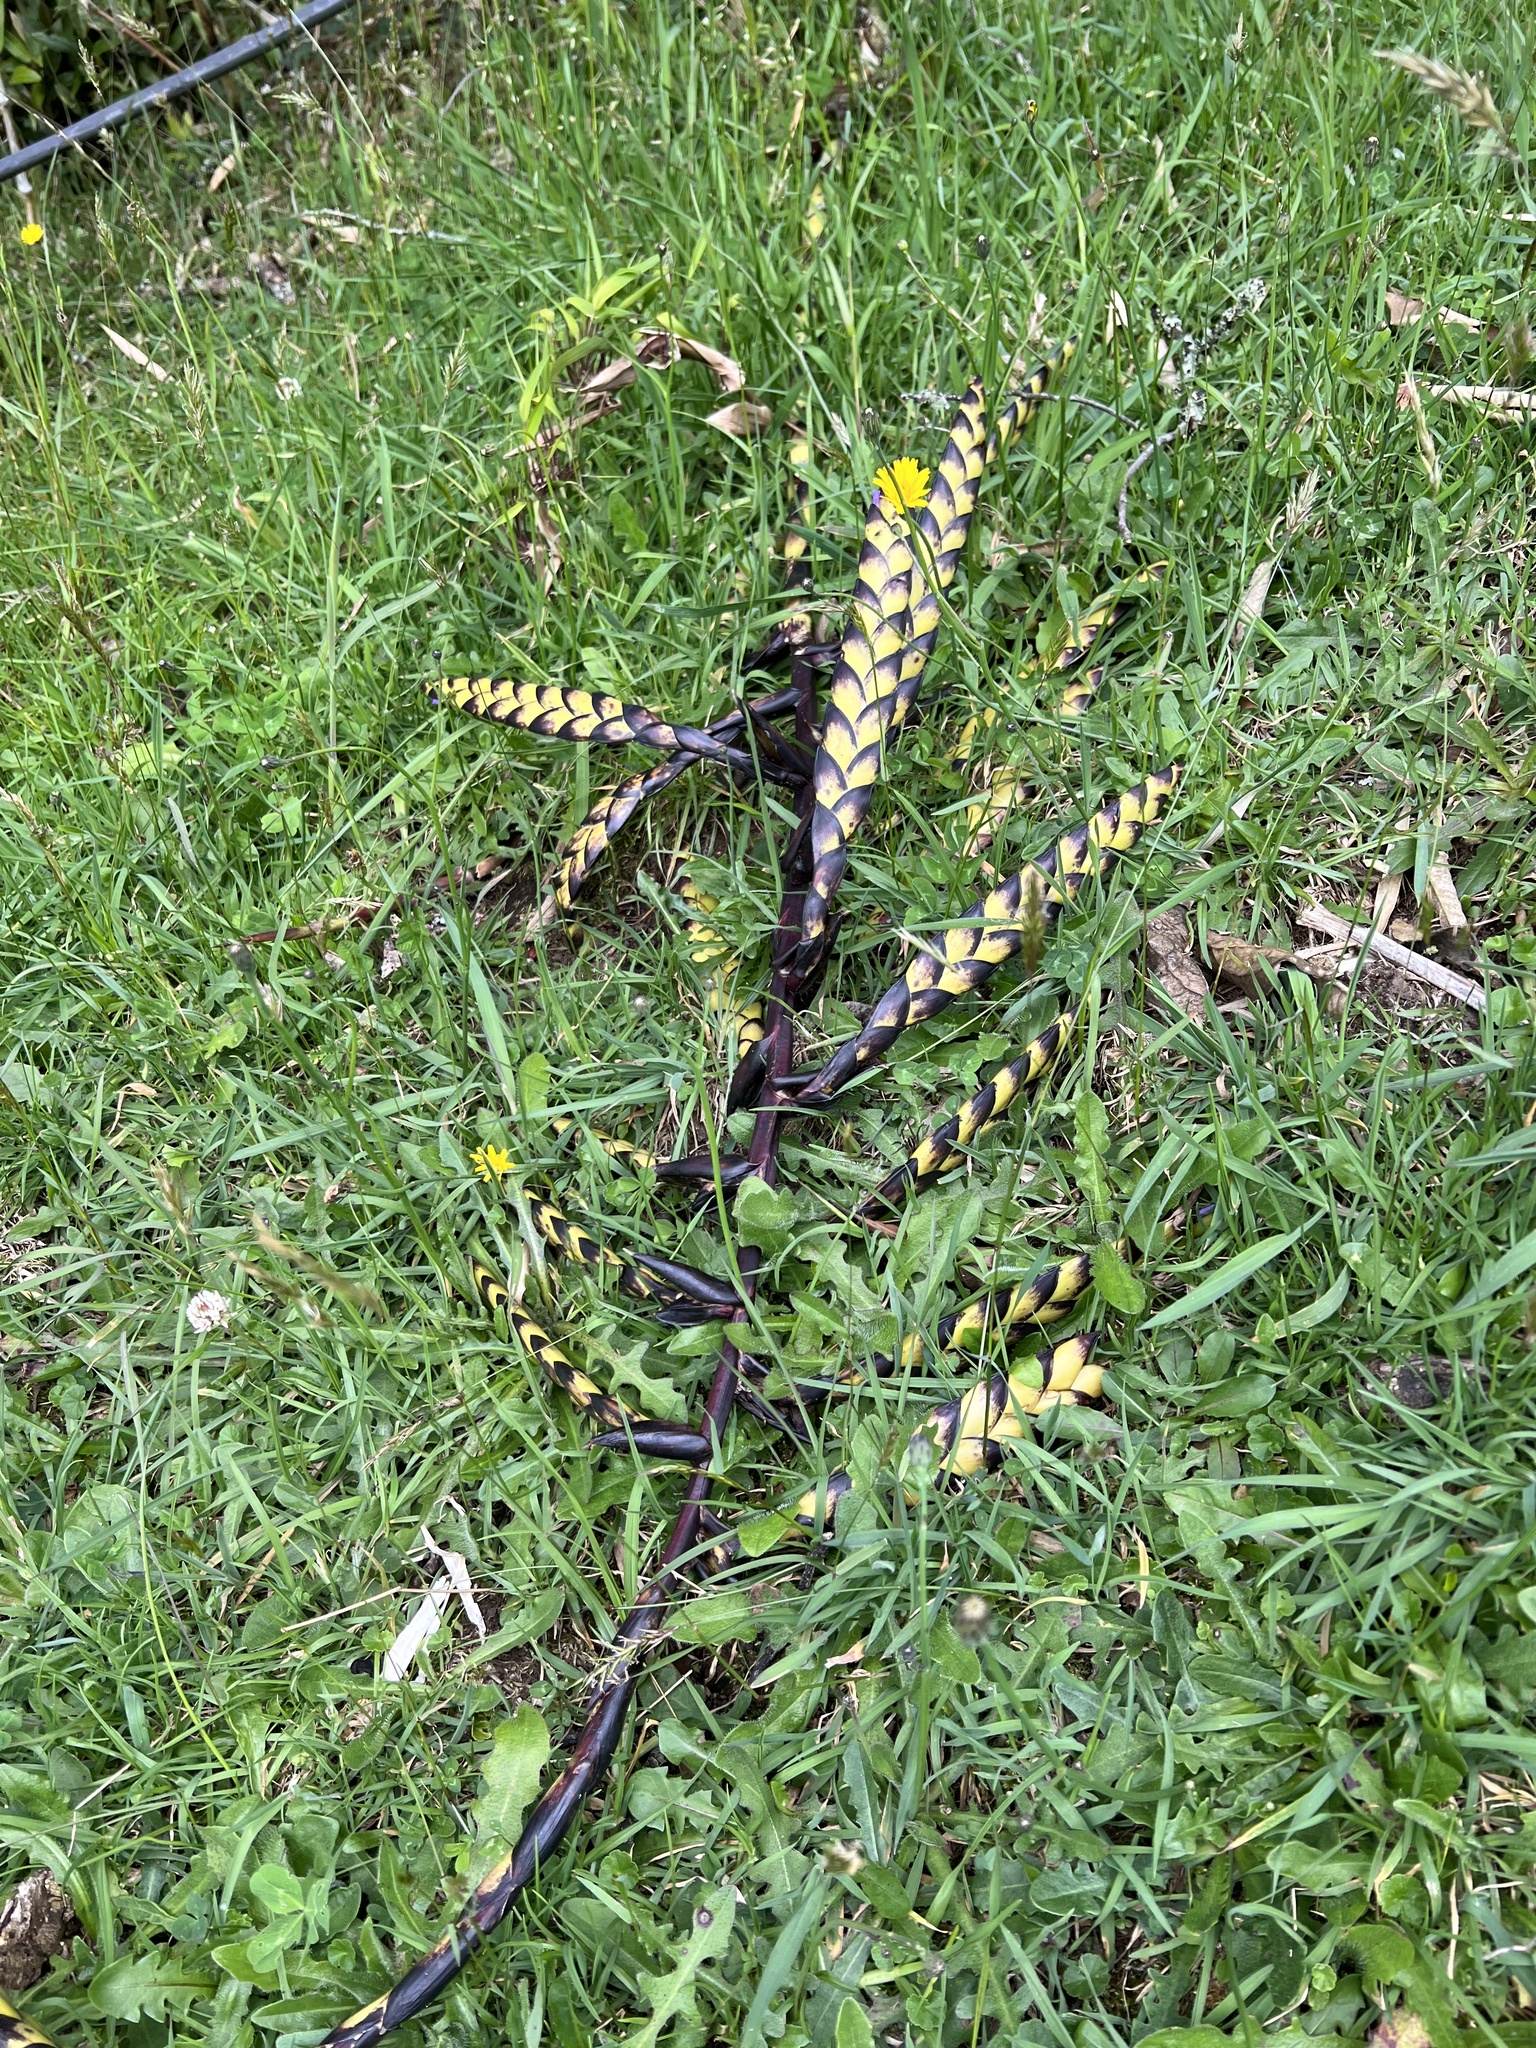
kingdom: Plantae
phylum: Tracheophyta
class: Liliopsida
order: Poales
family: Bromeliaceae
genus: Tillandsia
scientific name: Tillandsia francisci
